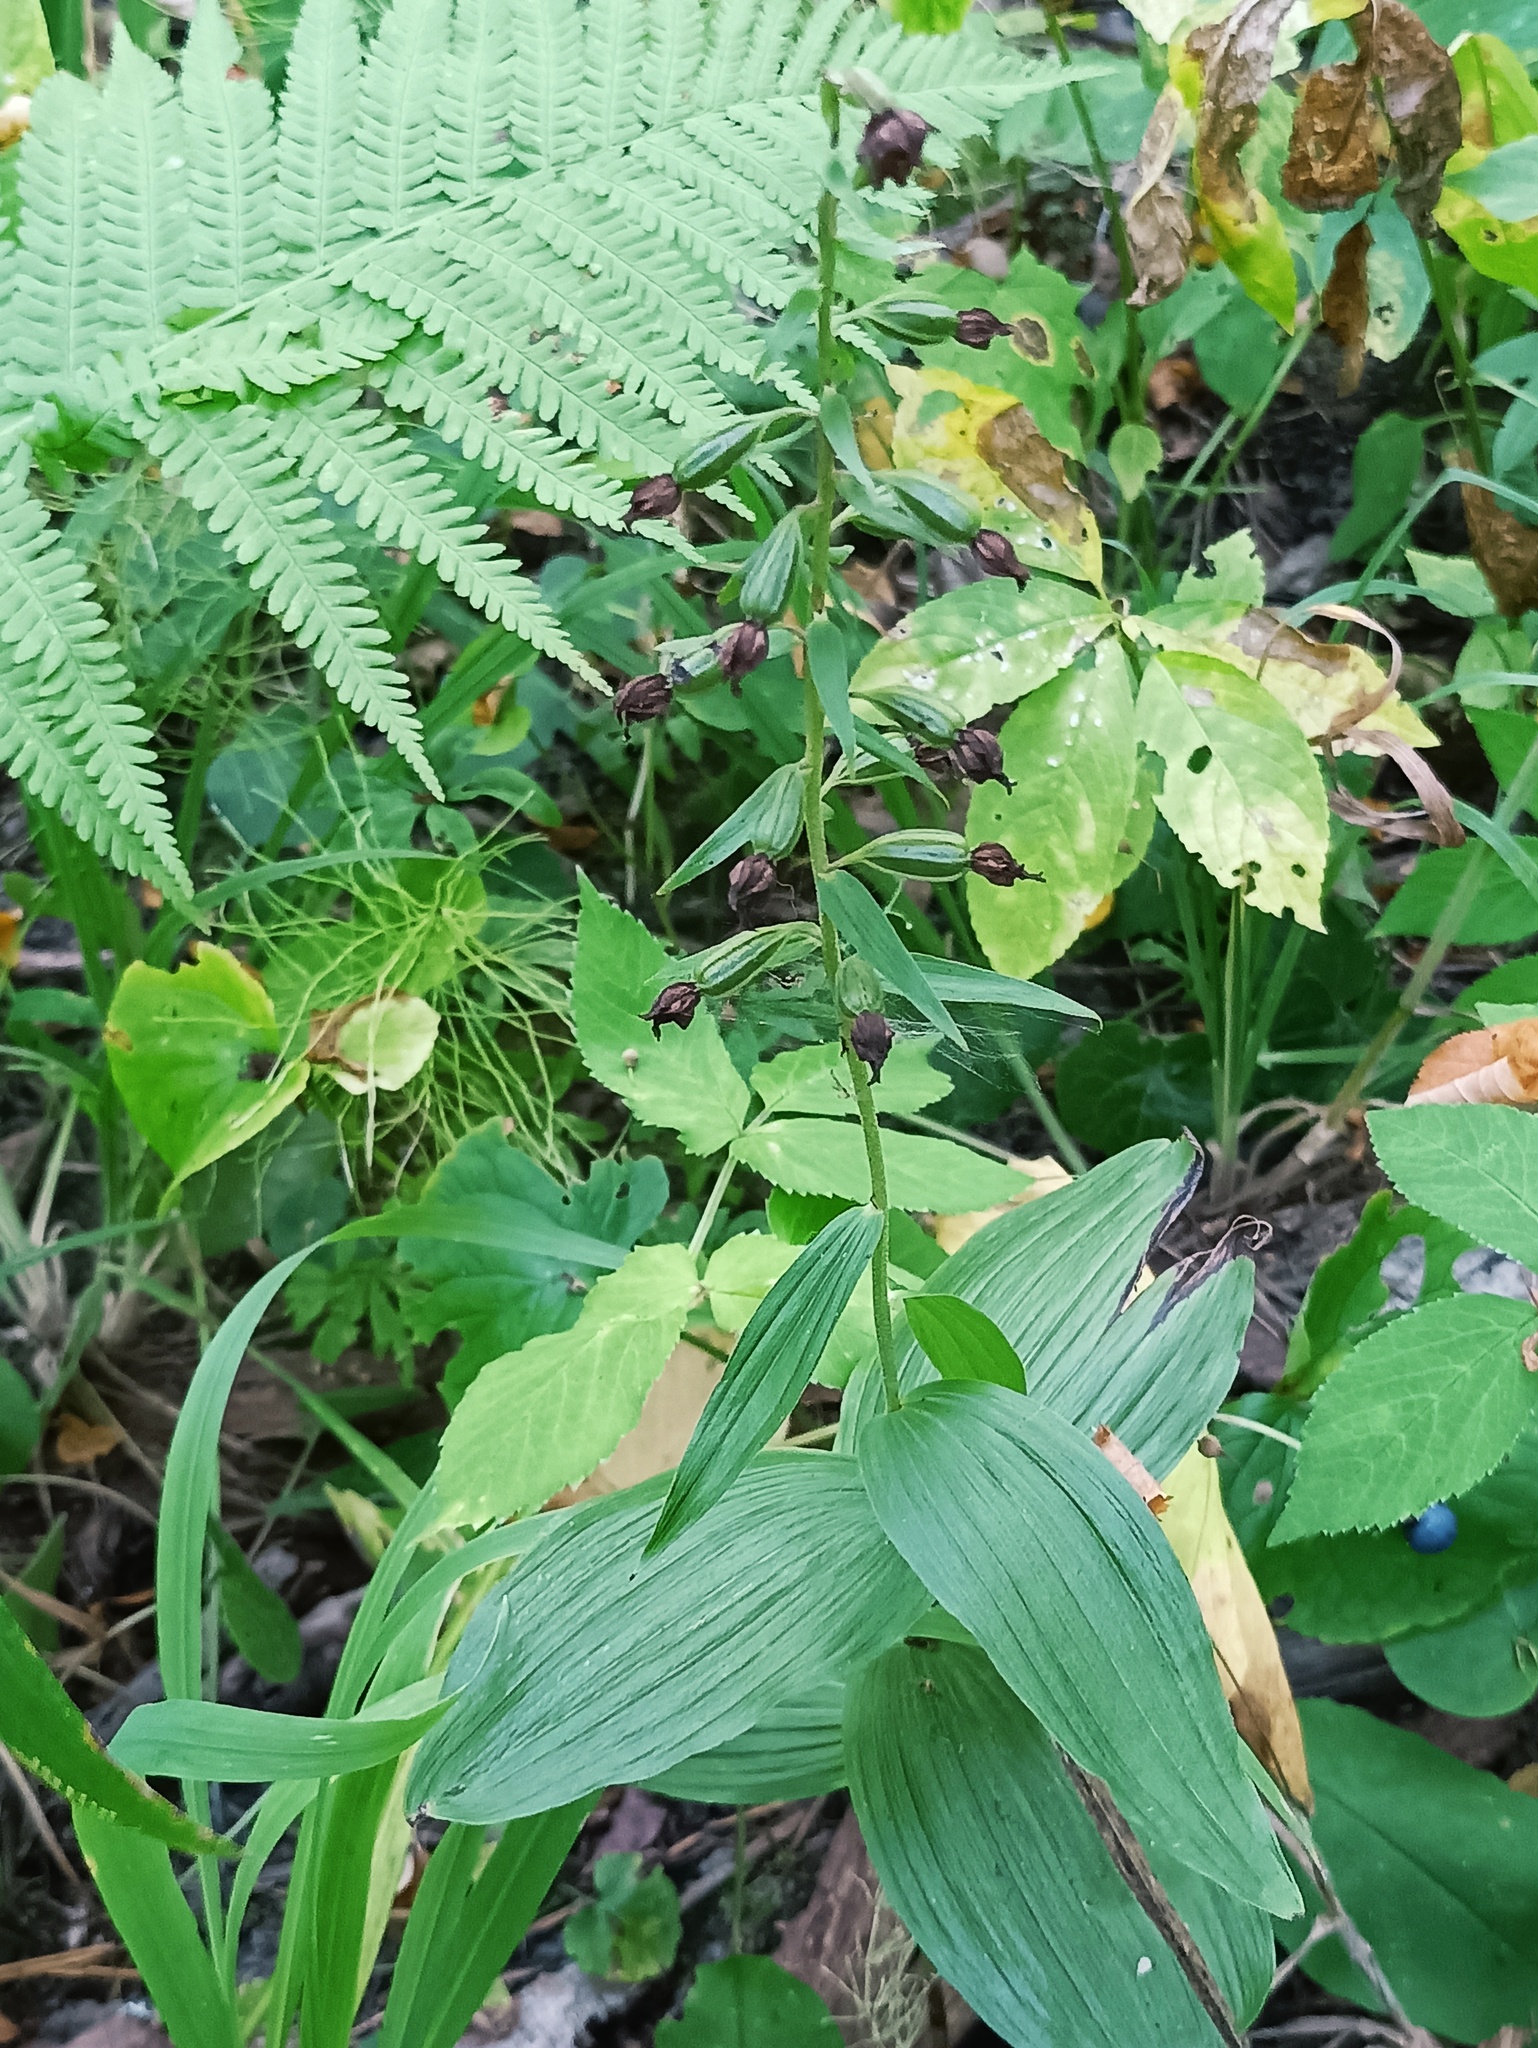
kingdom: Plantae
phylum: Tracheophyta
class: Liliopsida
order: Asparagales
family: Orchidaceae
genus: Epipactis
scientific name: Epipactis helleborine
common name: Broad-leaved helleborine
